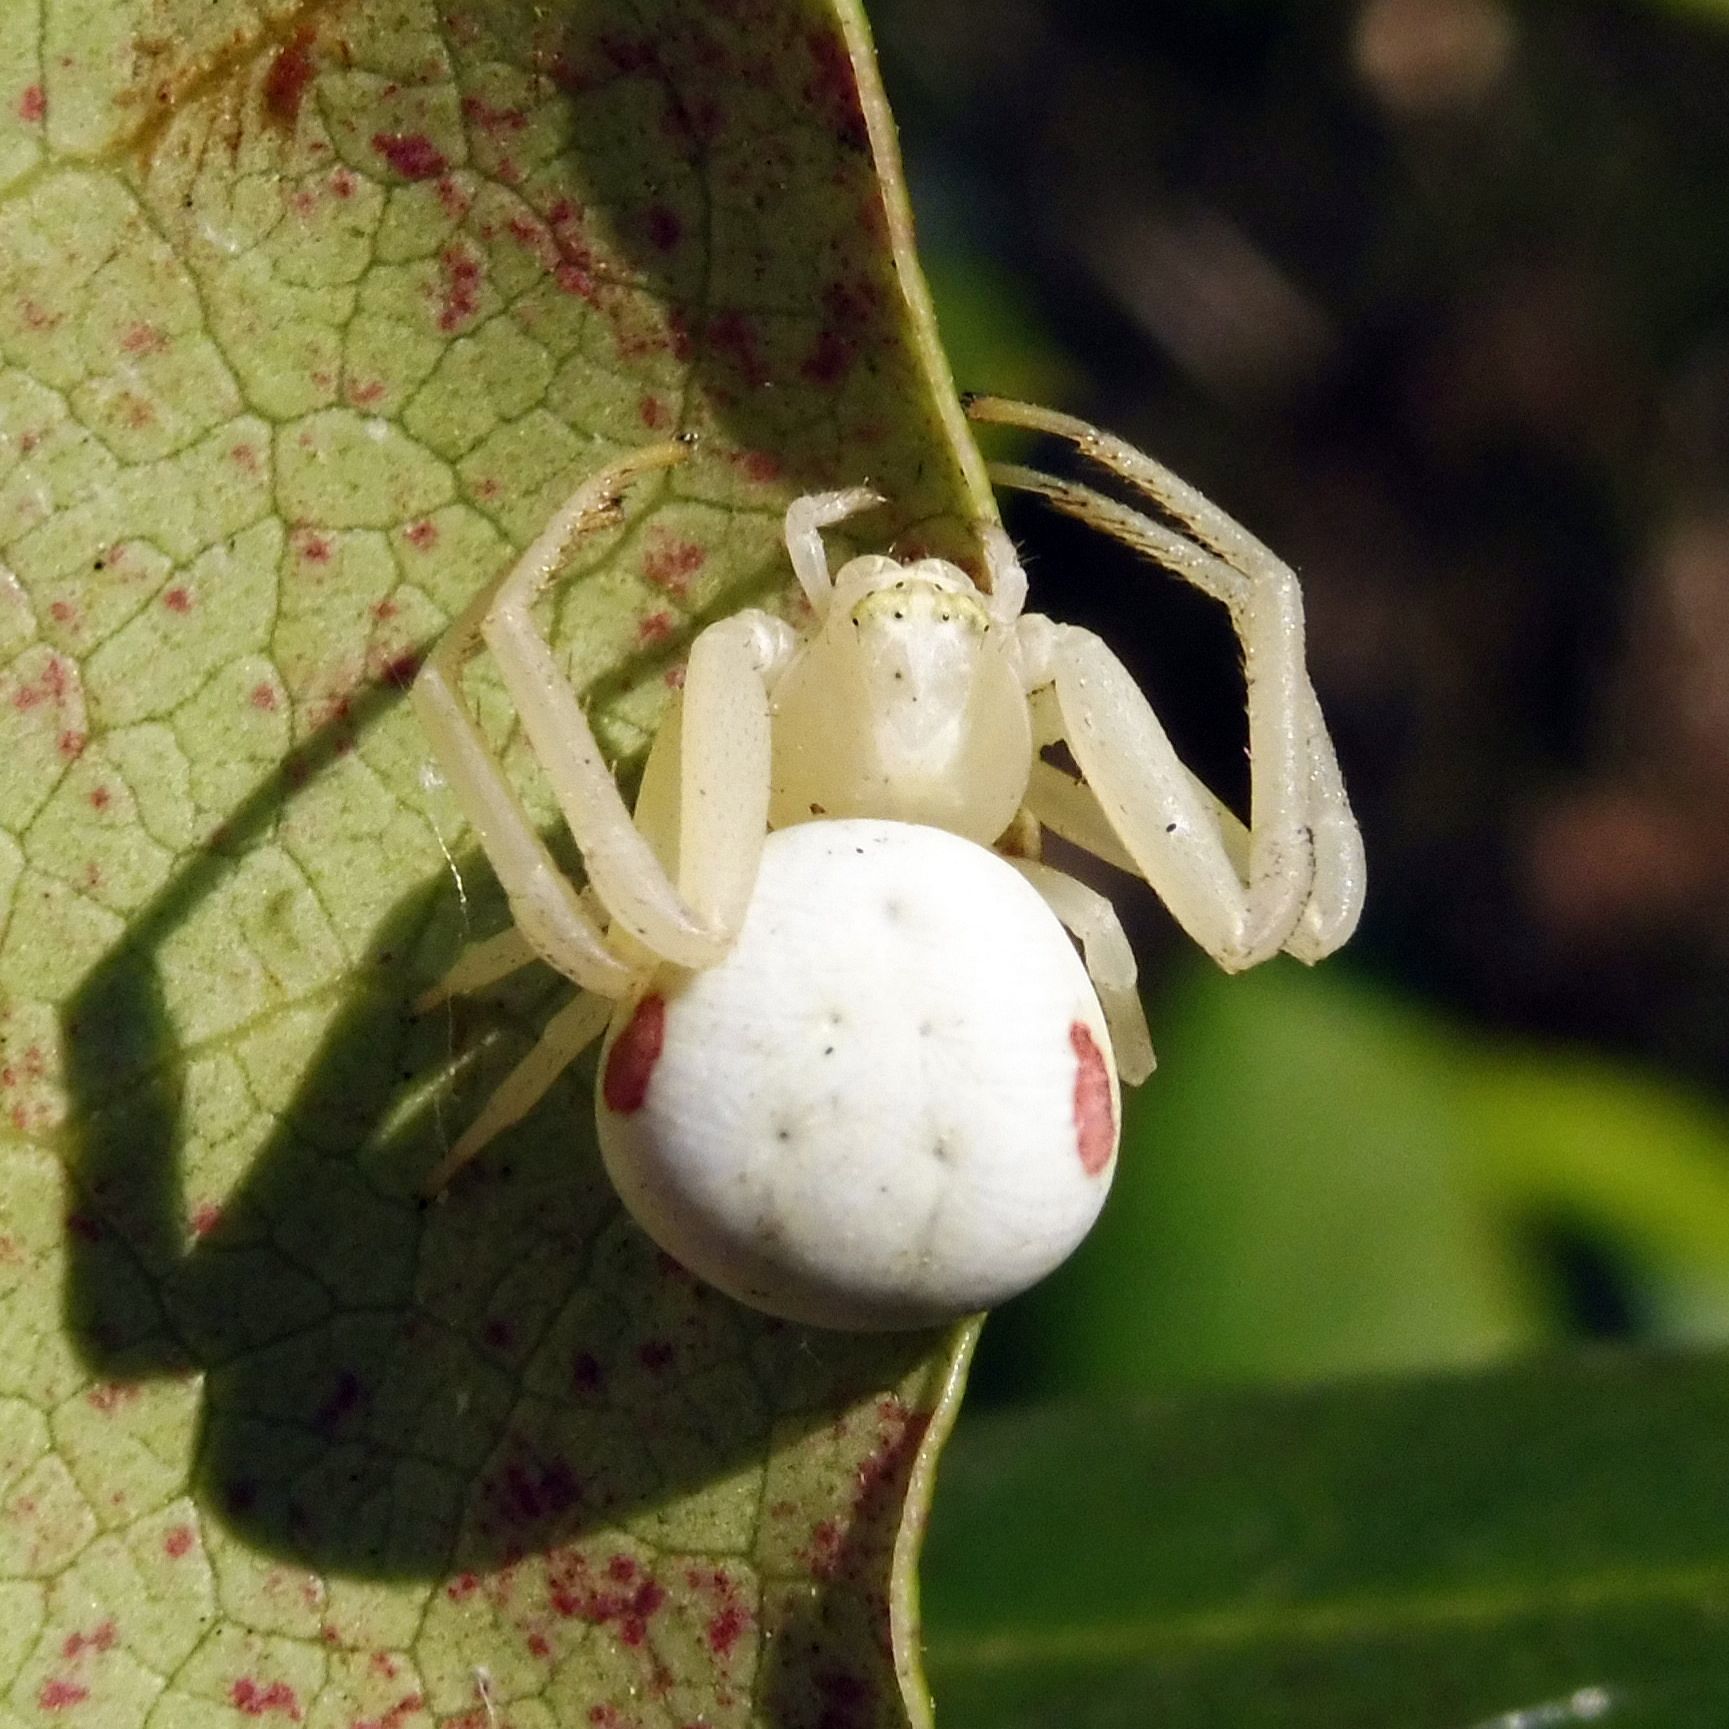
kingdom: Animalia
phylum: Arthropoda
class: Arachnida
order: Araneae
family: Thomisidae
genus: Misumena
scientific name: Misumena vatia
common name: Goldenrod crab spider
